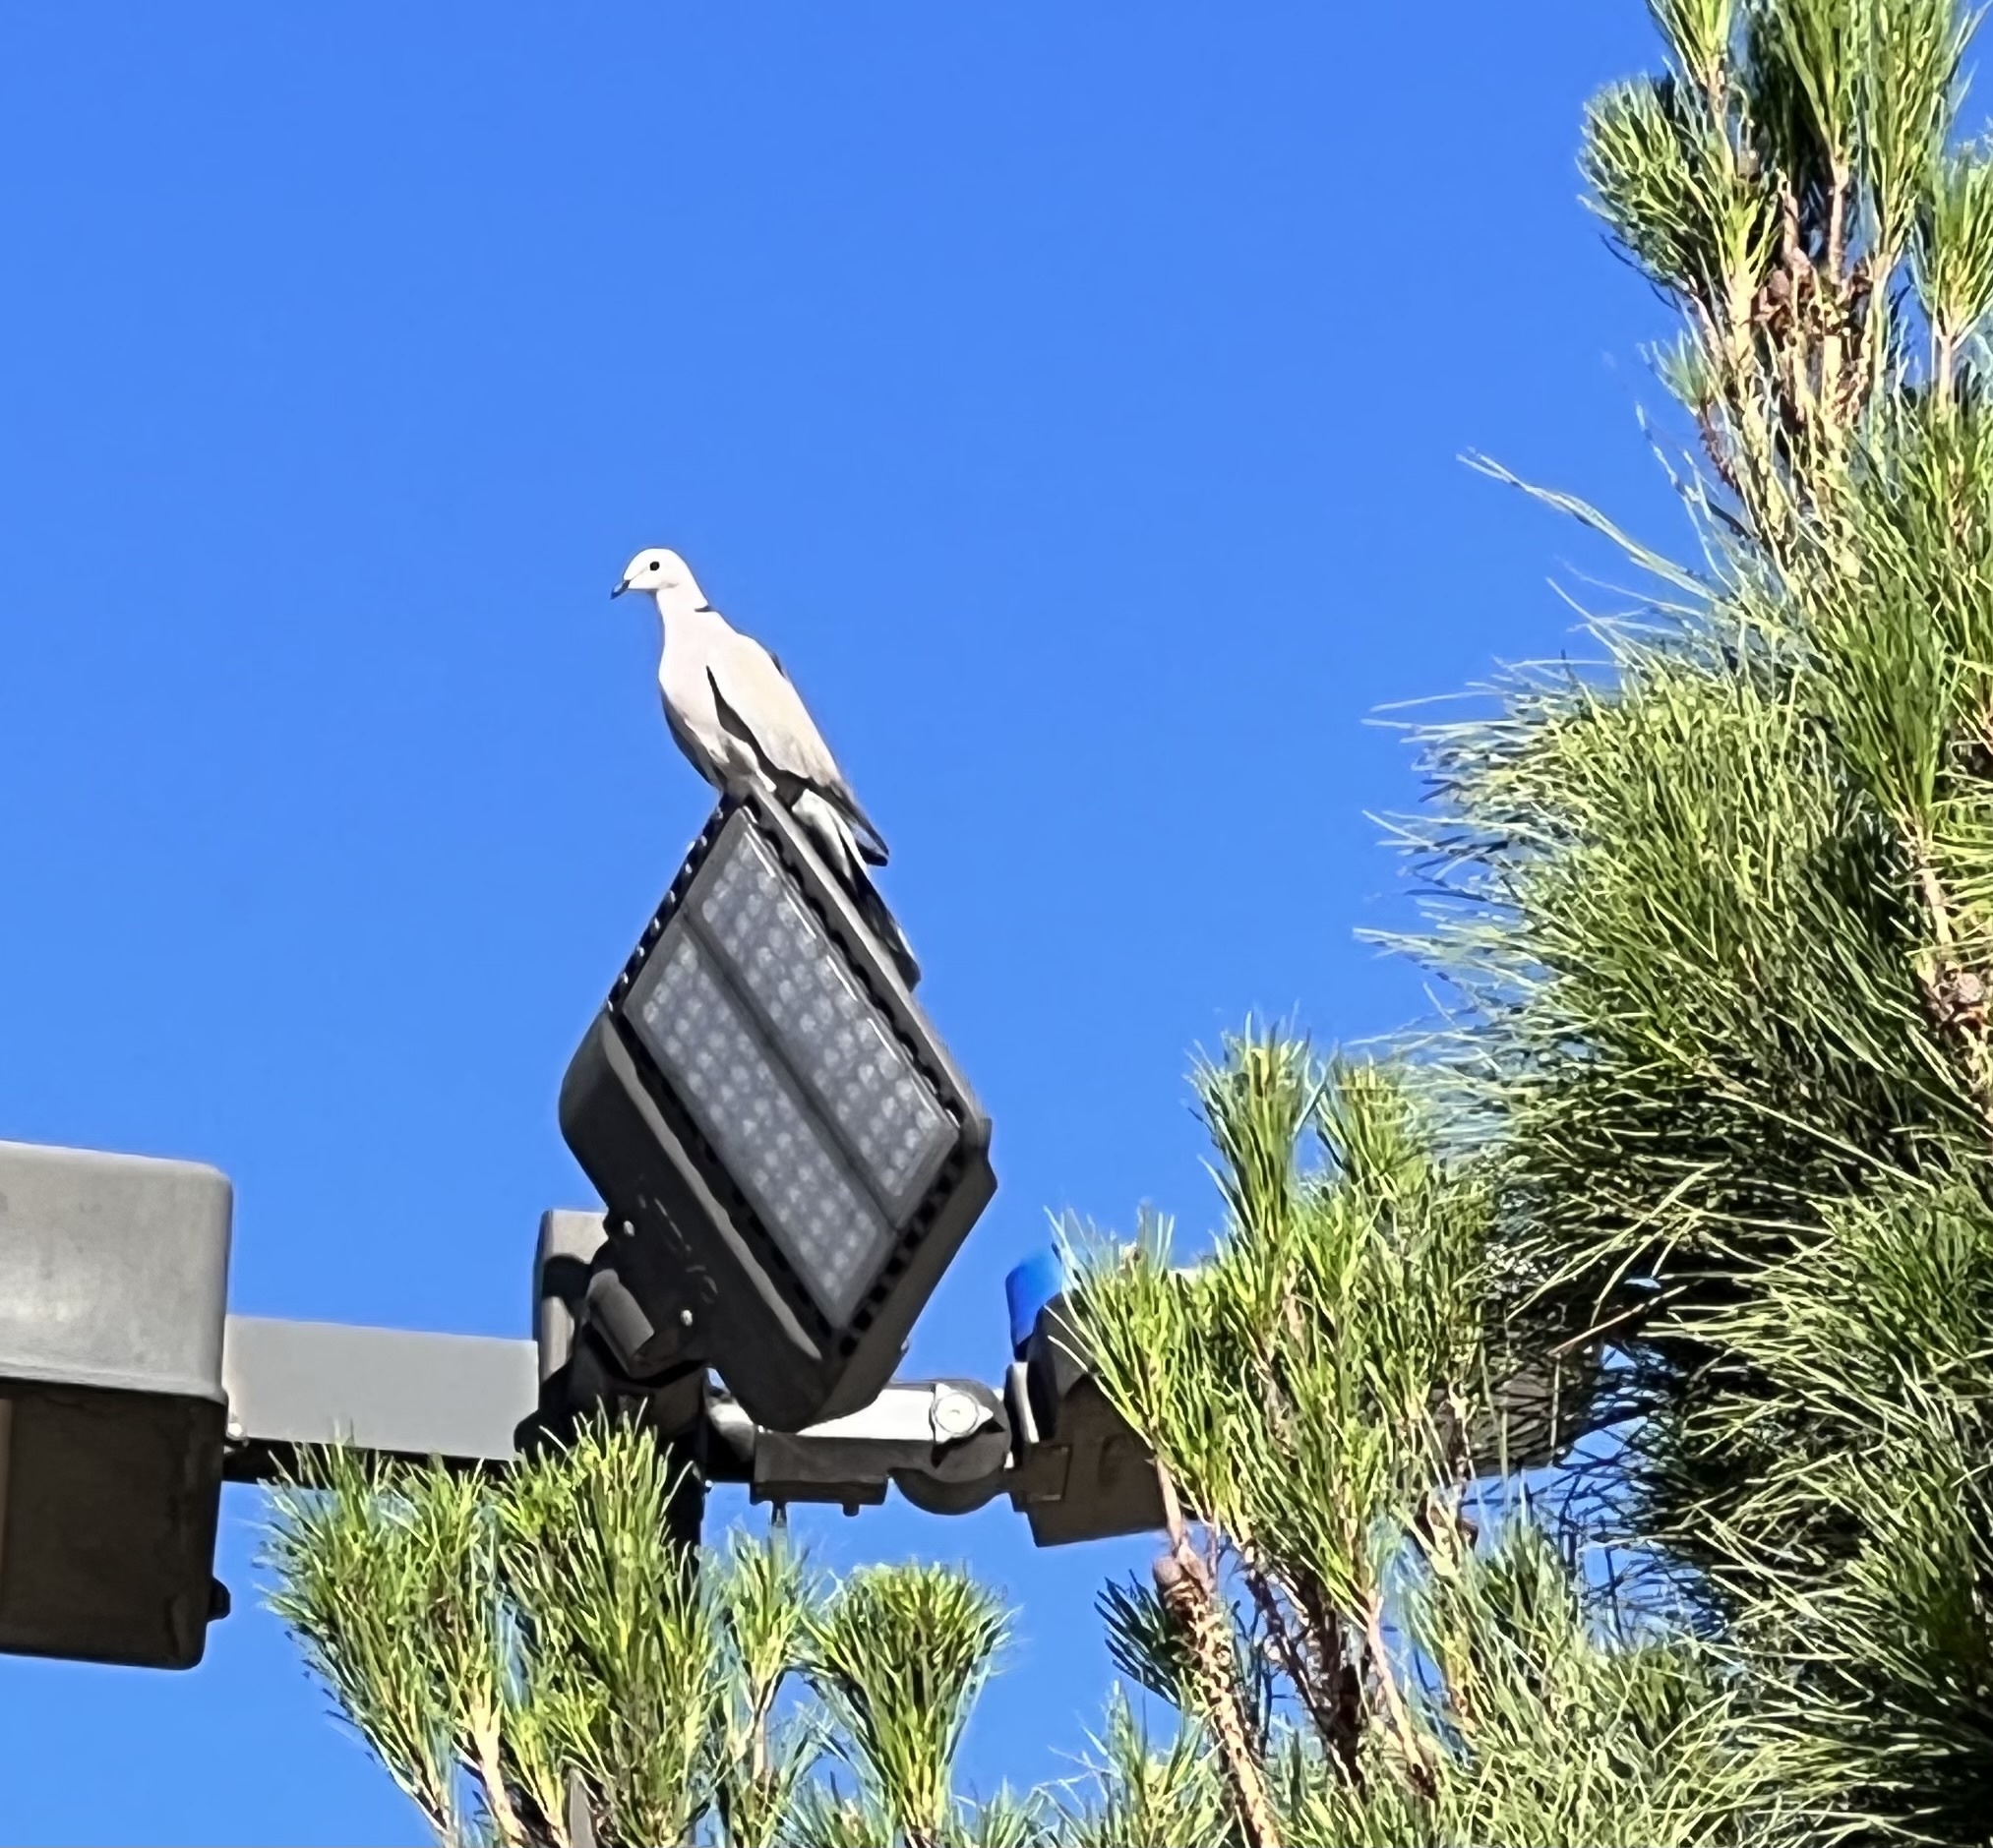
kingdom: Animalia
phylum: Chordata
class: Aves
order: Columbiformes
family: Columbidae
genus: Streptopelia
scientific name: Streptopelia decaocto
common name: Eurasian collared dove
